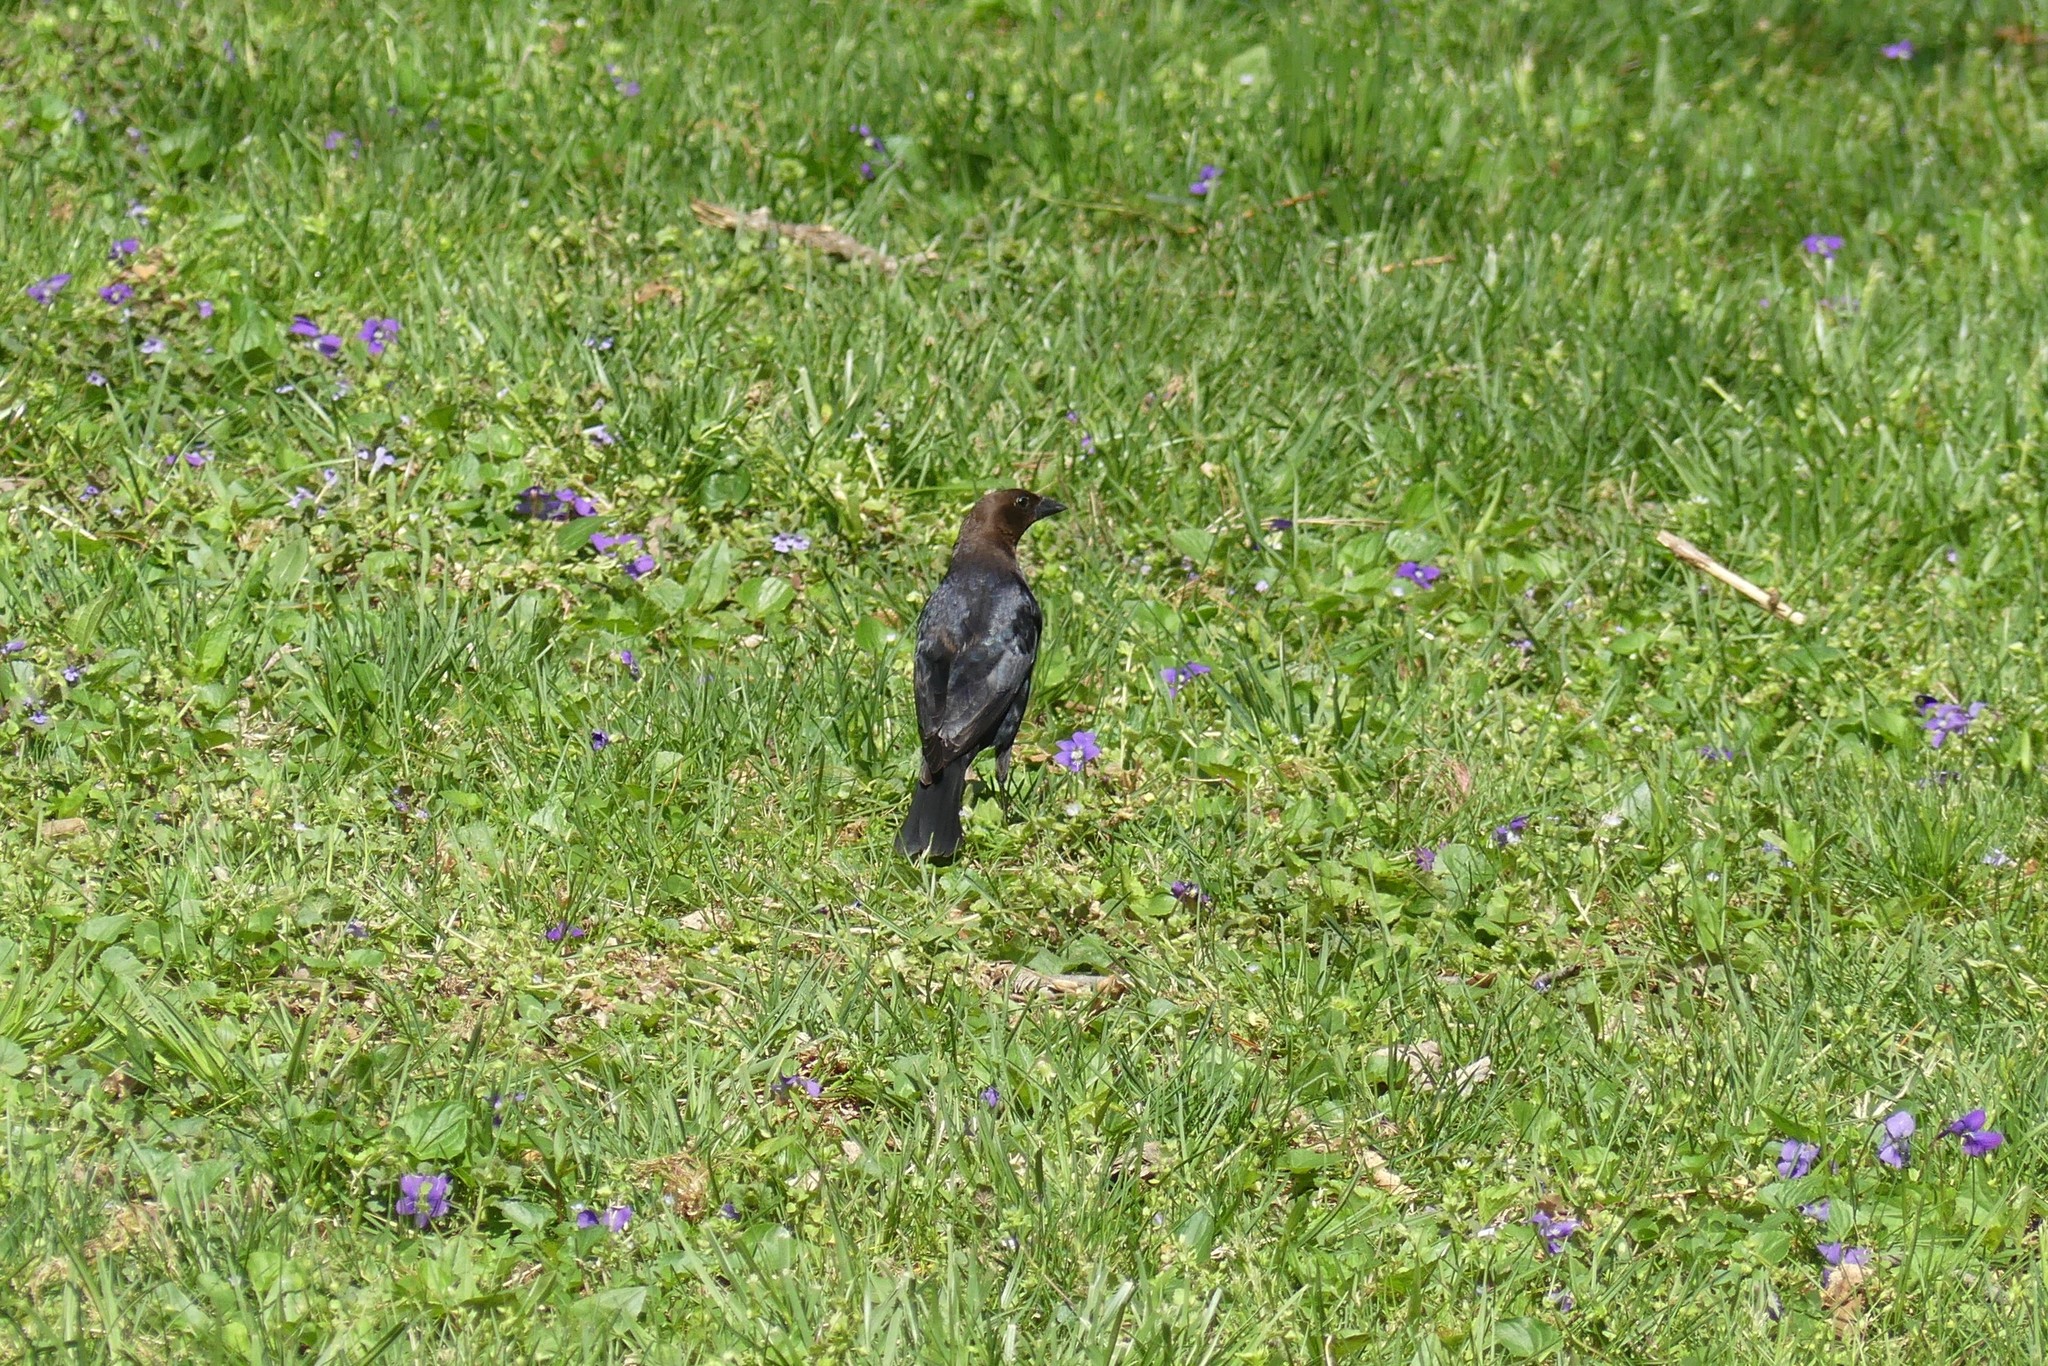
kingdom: Animalia
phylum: Chordata
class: Aves
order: Passeriformes
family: Icteridae
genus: Molothrus
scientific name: Molothrus ater
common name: Brown-headed cowbird
